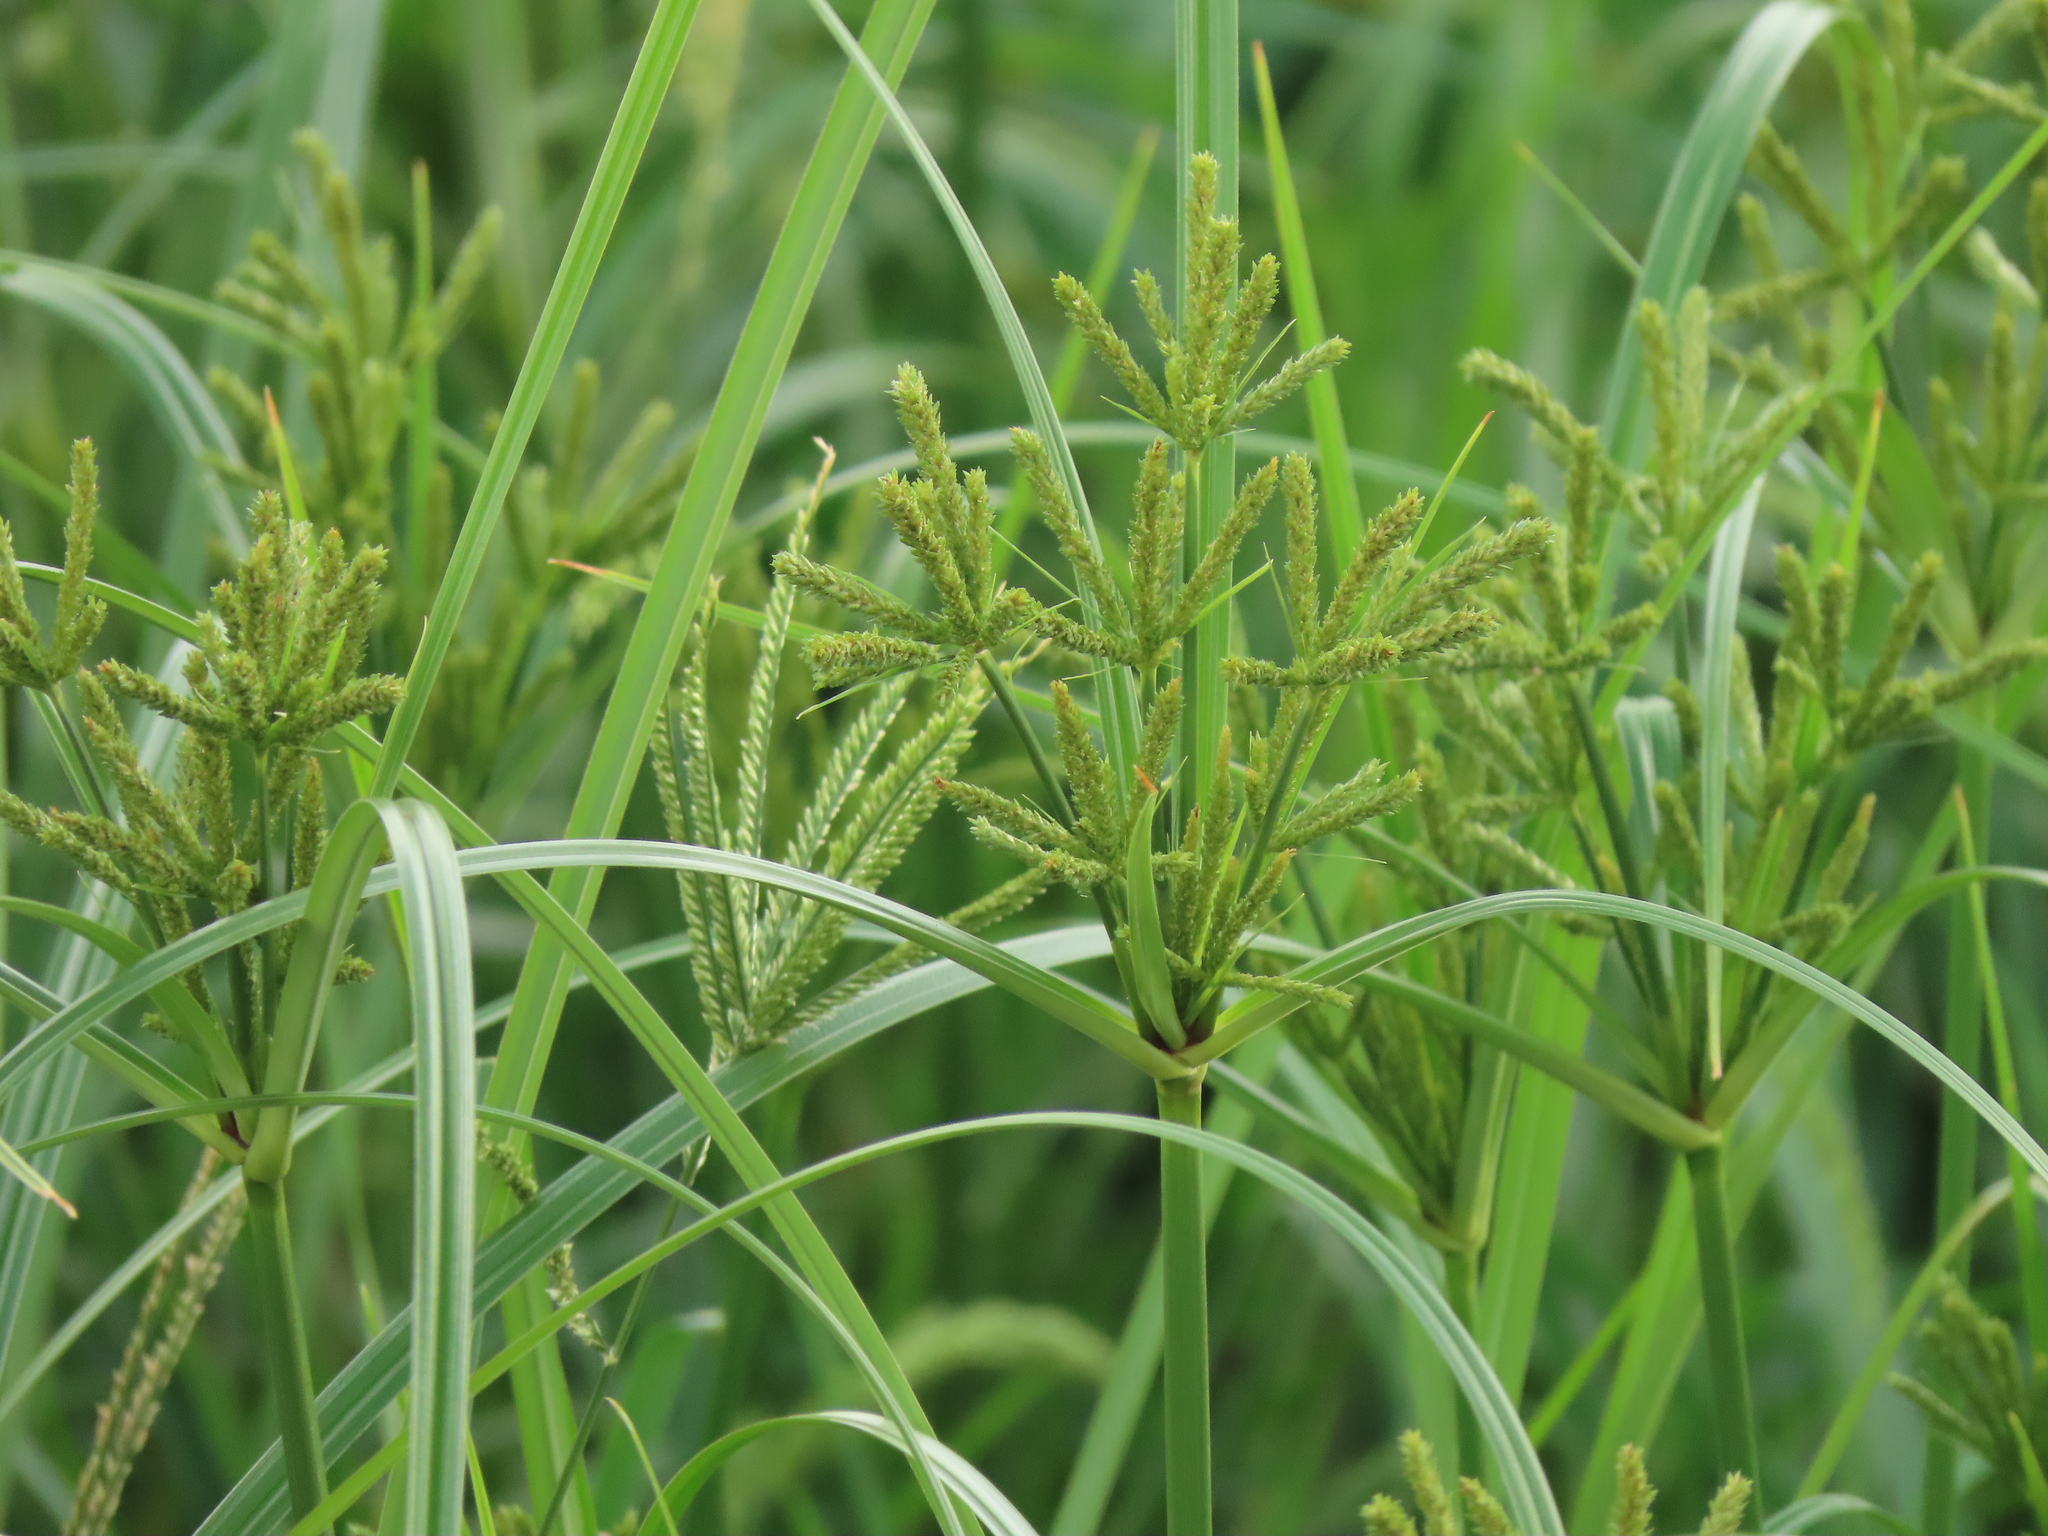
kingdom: Plantae
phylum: Tracheophyta
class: Liliopsida
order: Poales
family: Cyperaceae
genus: Cyperus
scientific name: Cyperus imbricatus
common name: Shingle flatsedge
